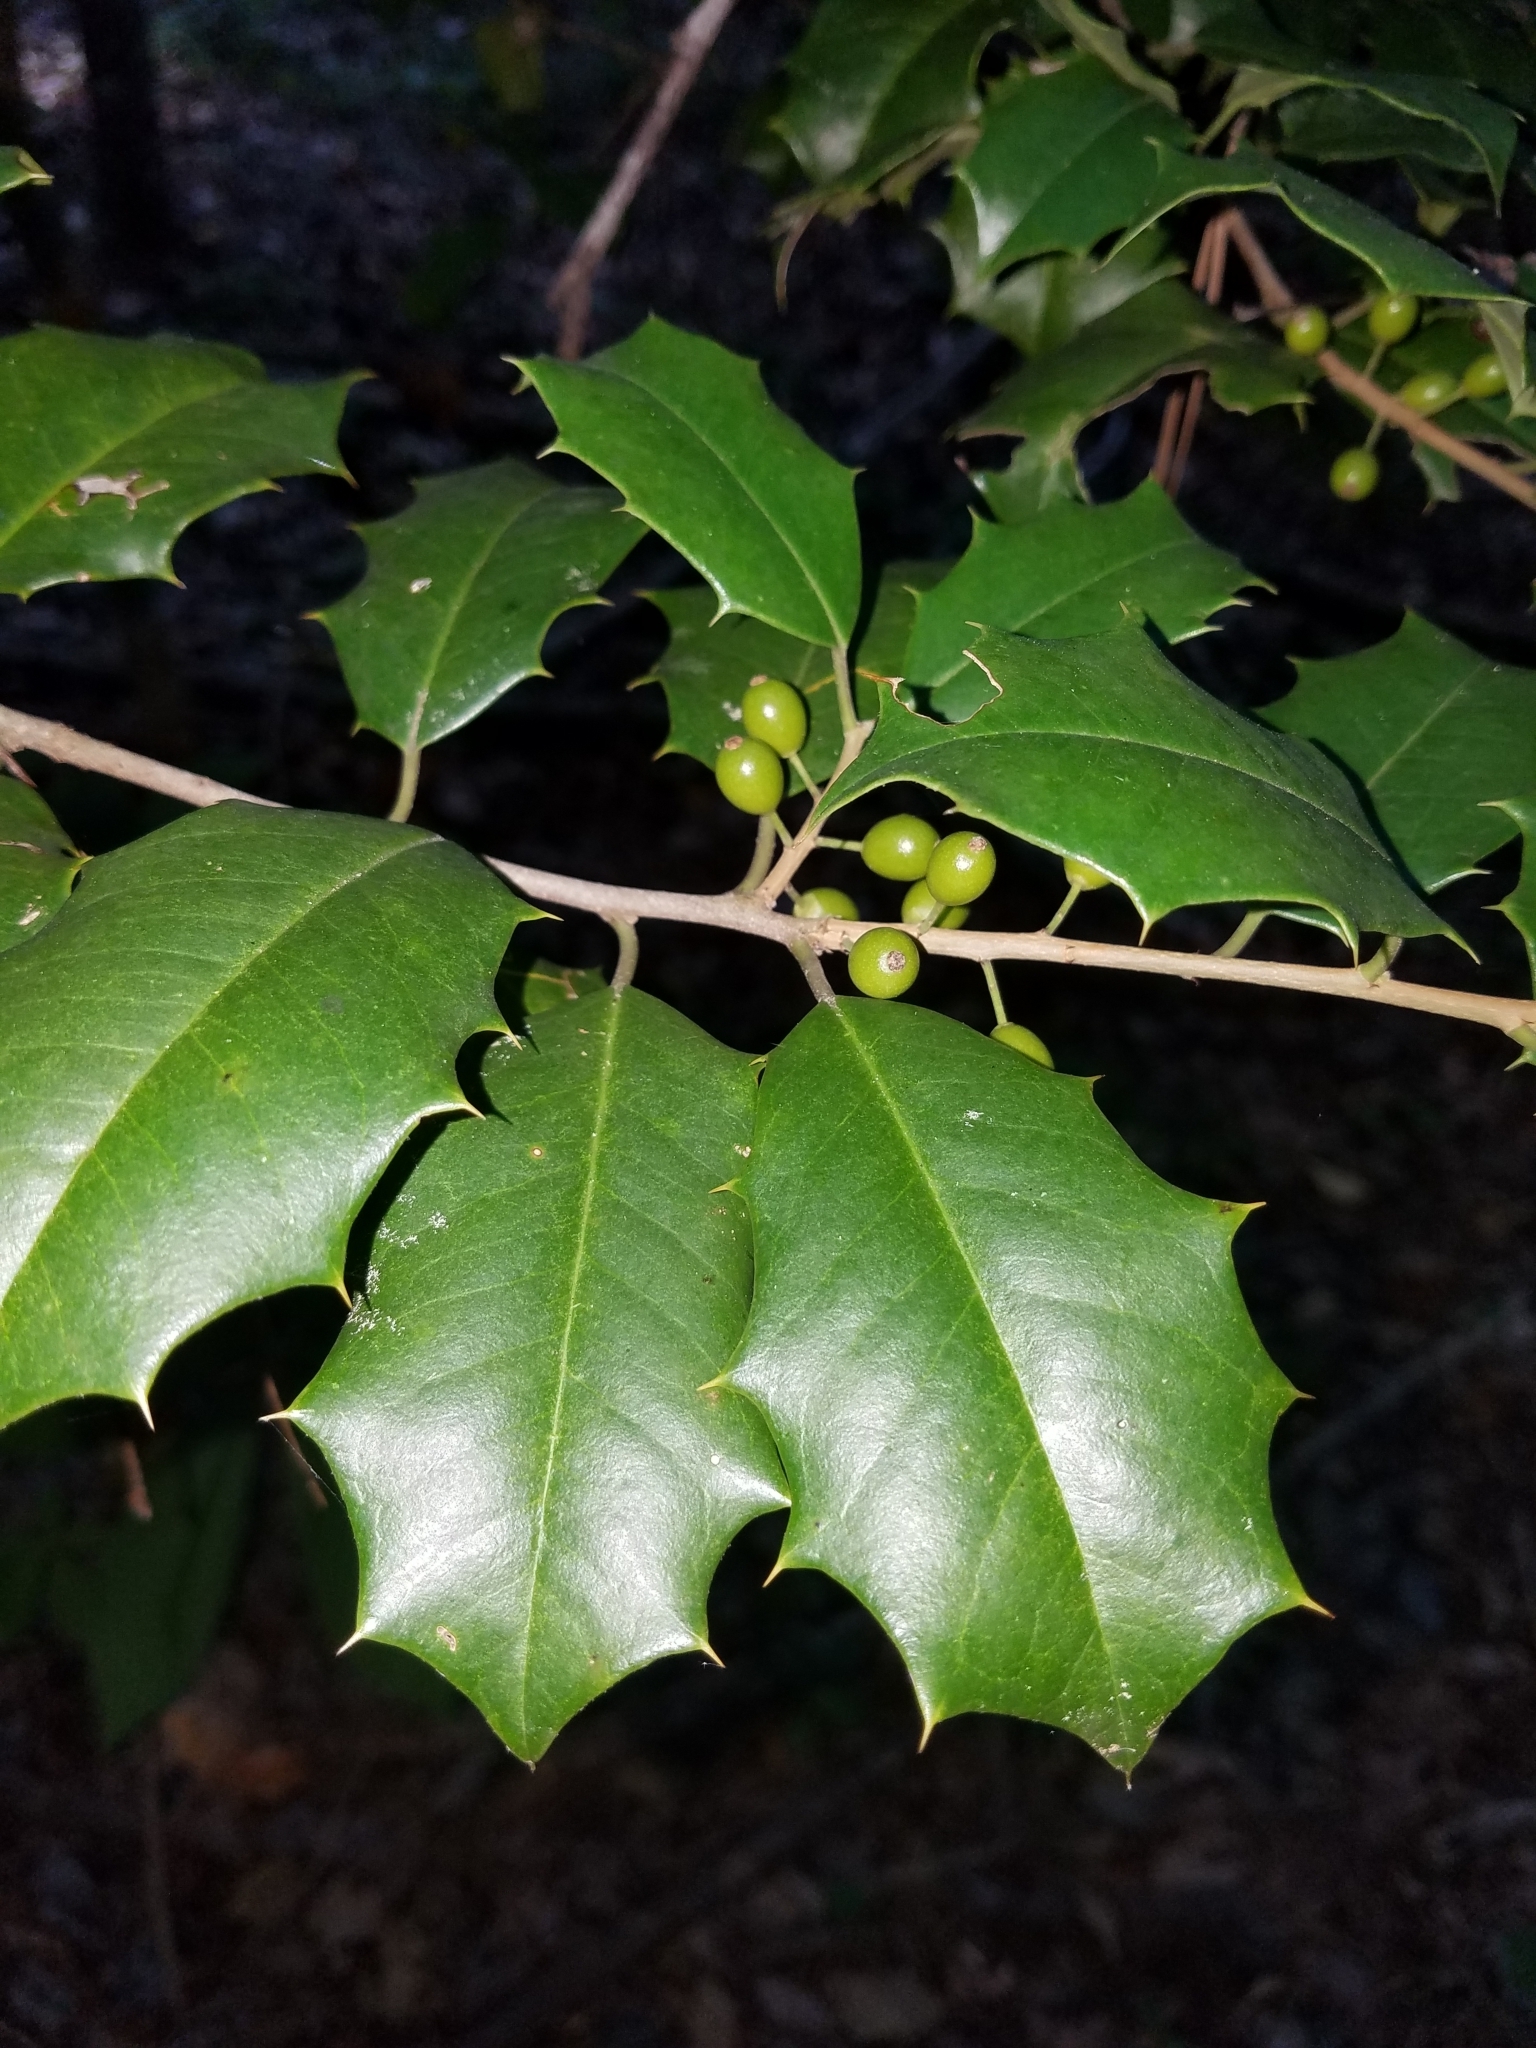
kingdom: Plantae
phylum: Tracheophyta
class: Magnoliopsida
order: Aquifoliales
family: Aquifoliaceae
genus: Ilex
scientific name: Ilex opaca
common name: American holly
